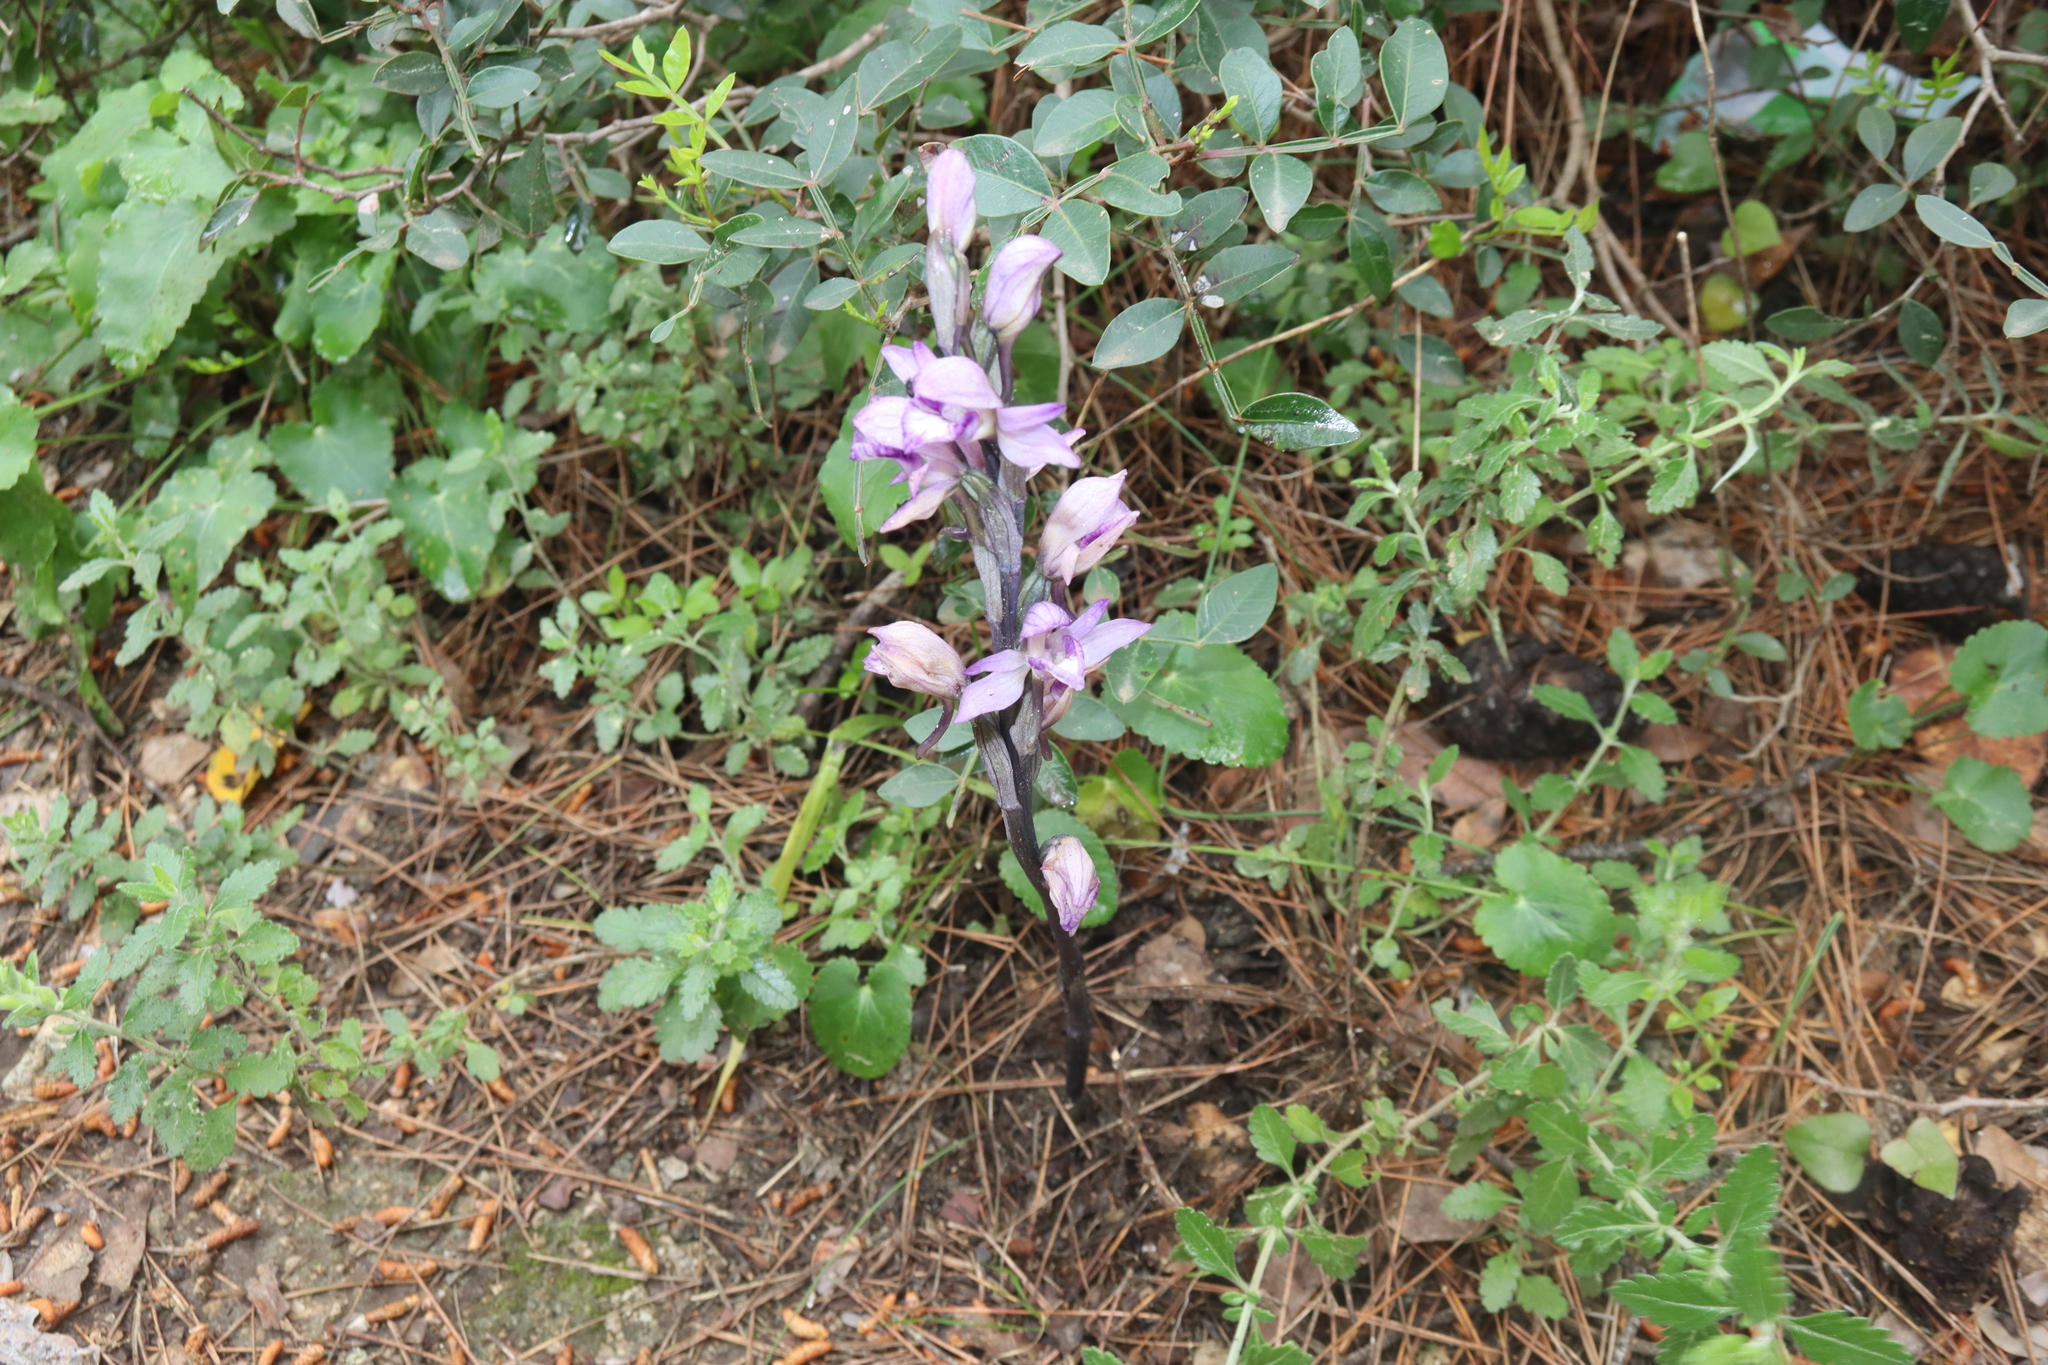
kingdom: Plantae
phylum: Tracheophyta
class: Liliopsida
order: Asparagales
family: Orchidaceae
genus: Limodorum
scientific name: Limodorum abortivum
